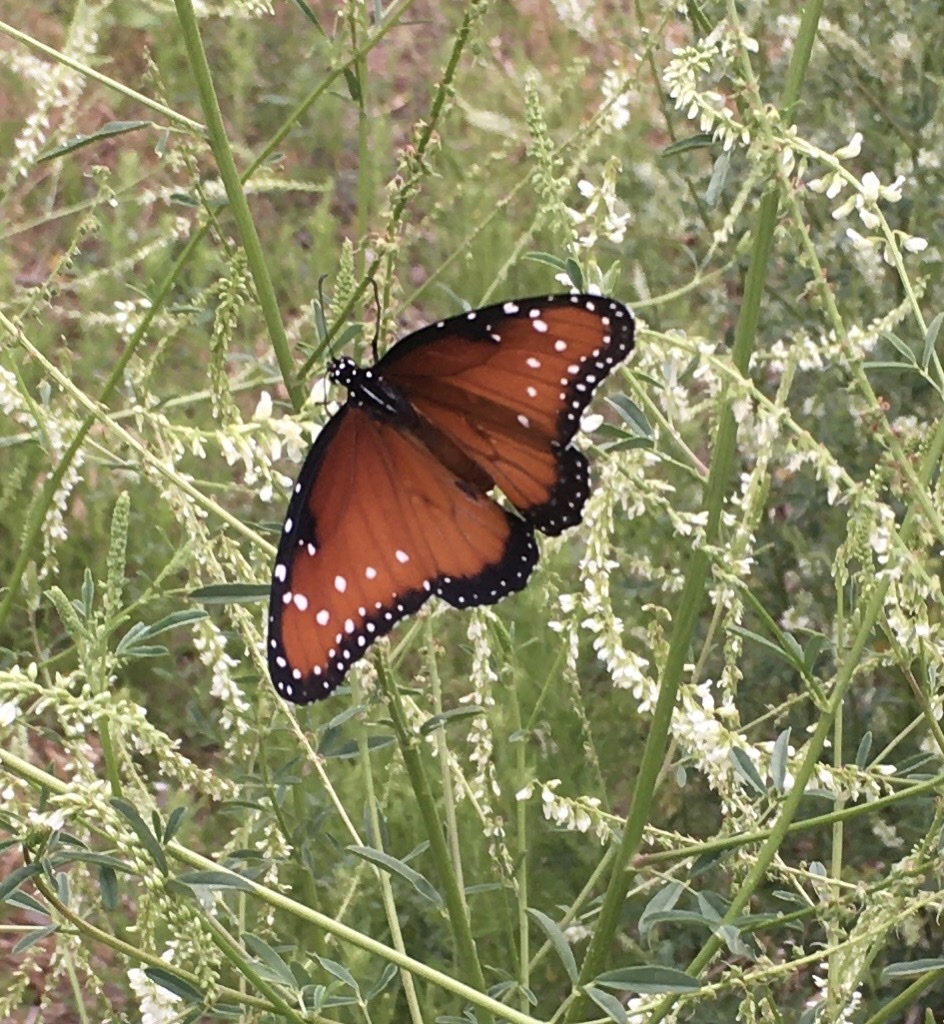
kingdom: Animalia
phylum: Arthropoda
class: Insecta
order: Lepidoptera
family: Nymphalidae
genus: Danaus
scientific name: Danaus gilippus
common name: Queen
